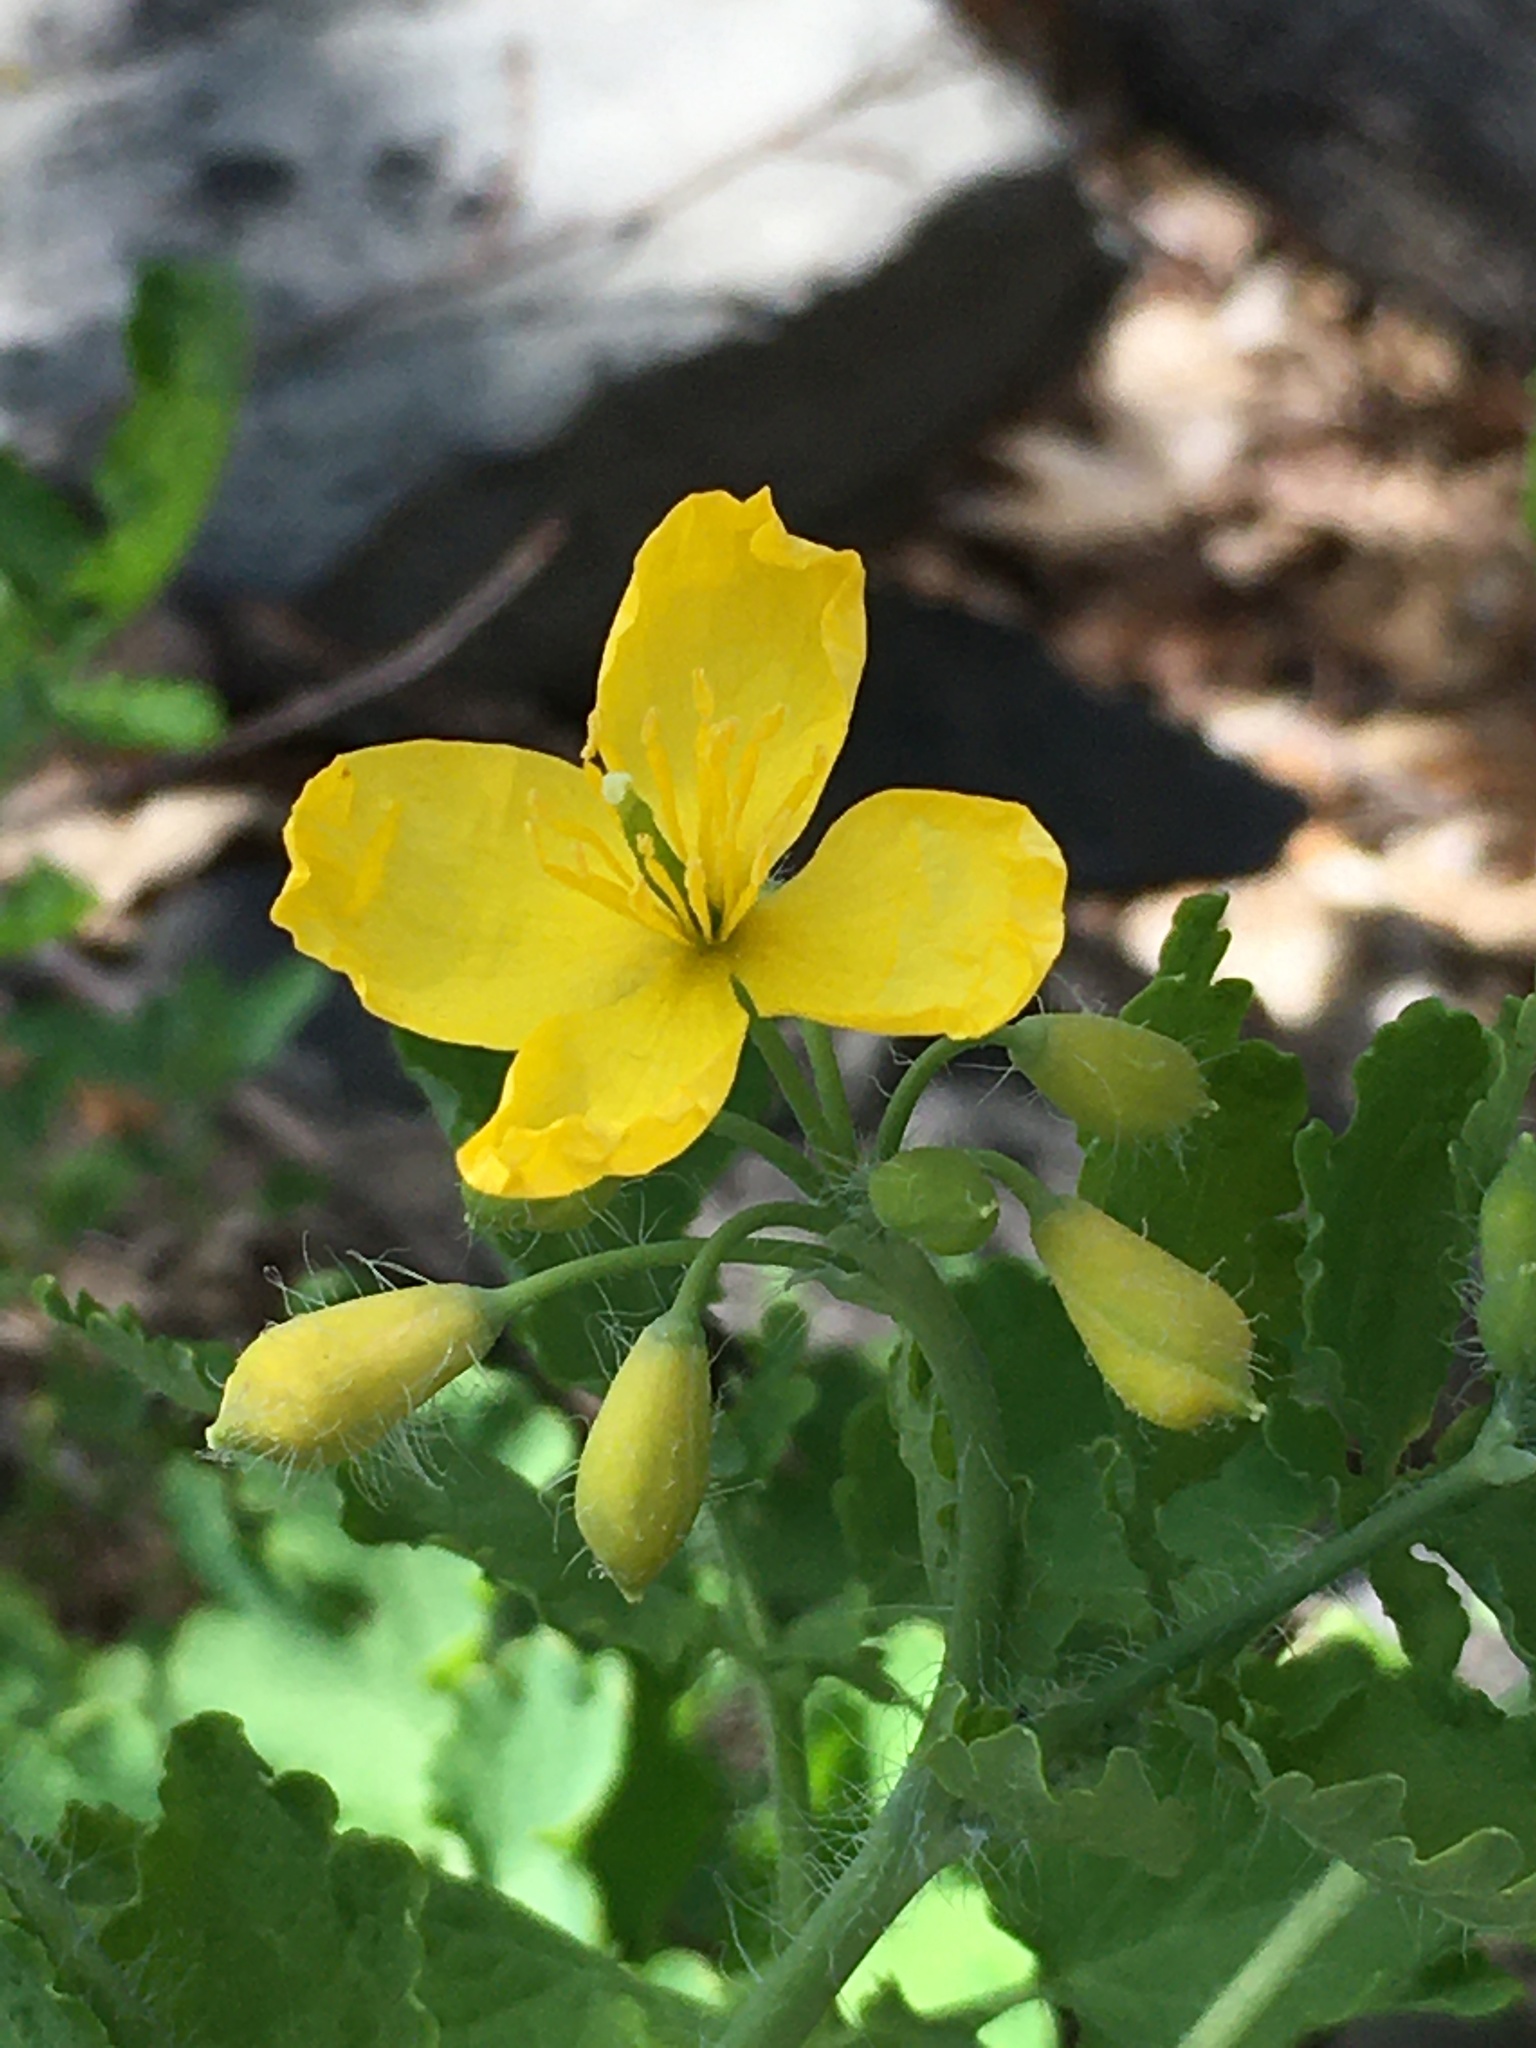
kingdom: Plantae
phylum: Tracheophyta
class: Magnoliopsida
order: Ranunculales
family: Papaveraceae
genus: Chelidonium
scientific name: Chelidonium majus
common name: Greater celandine
